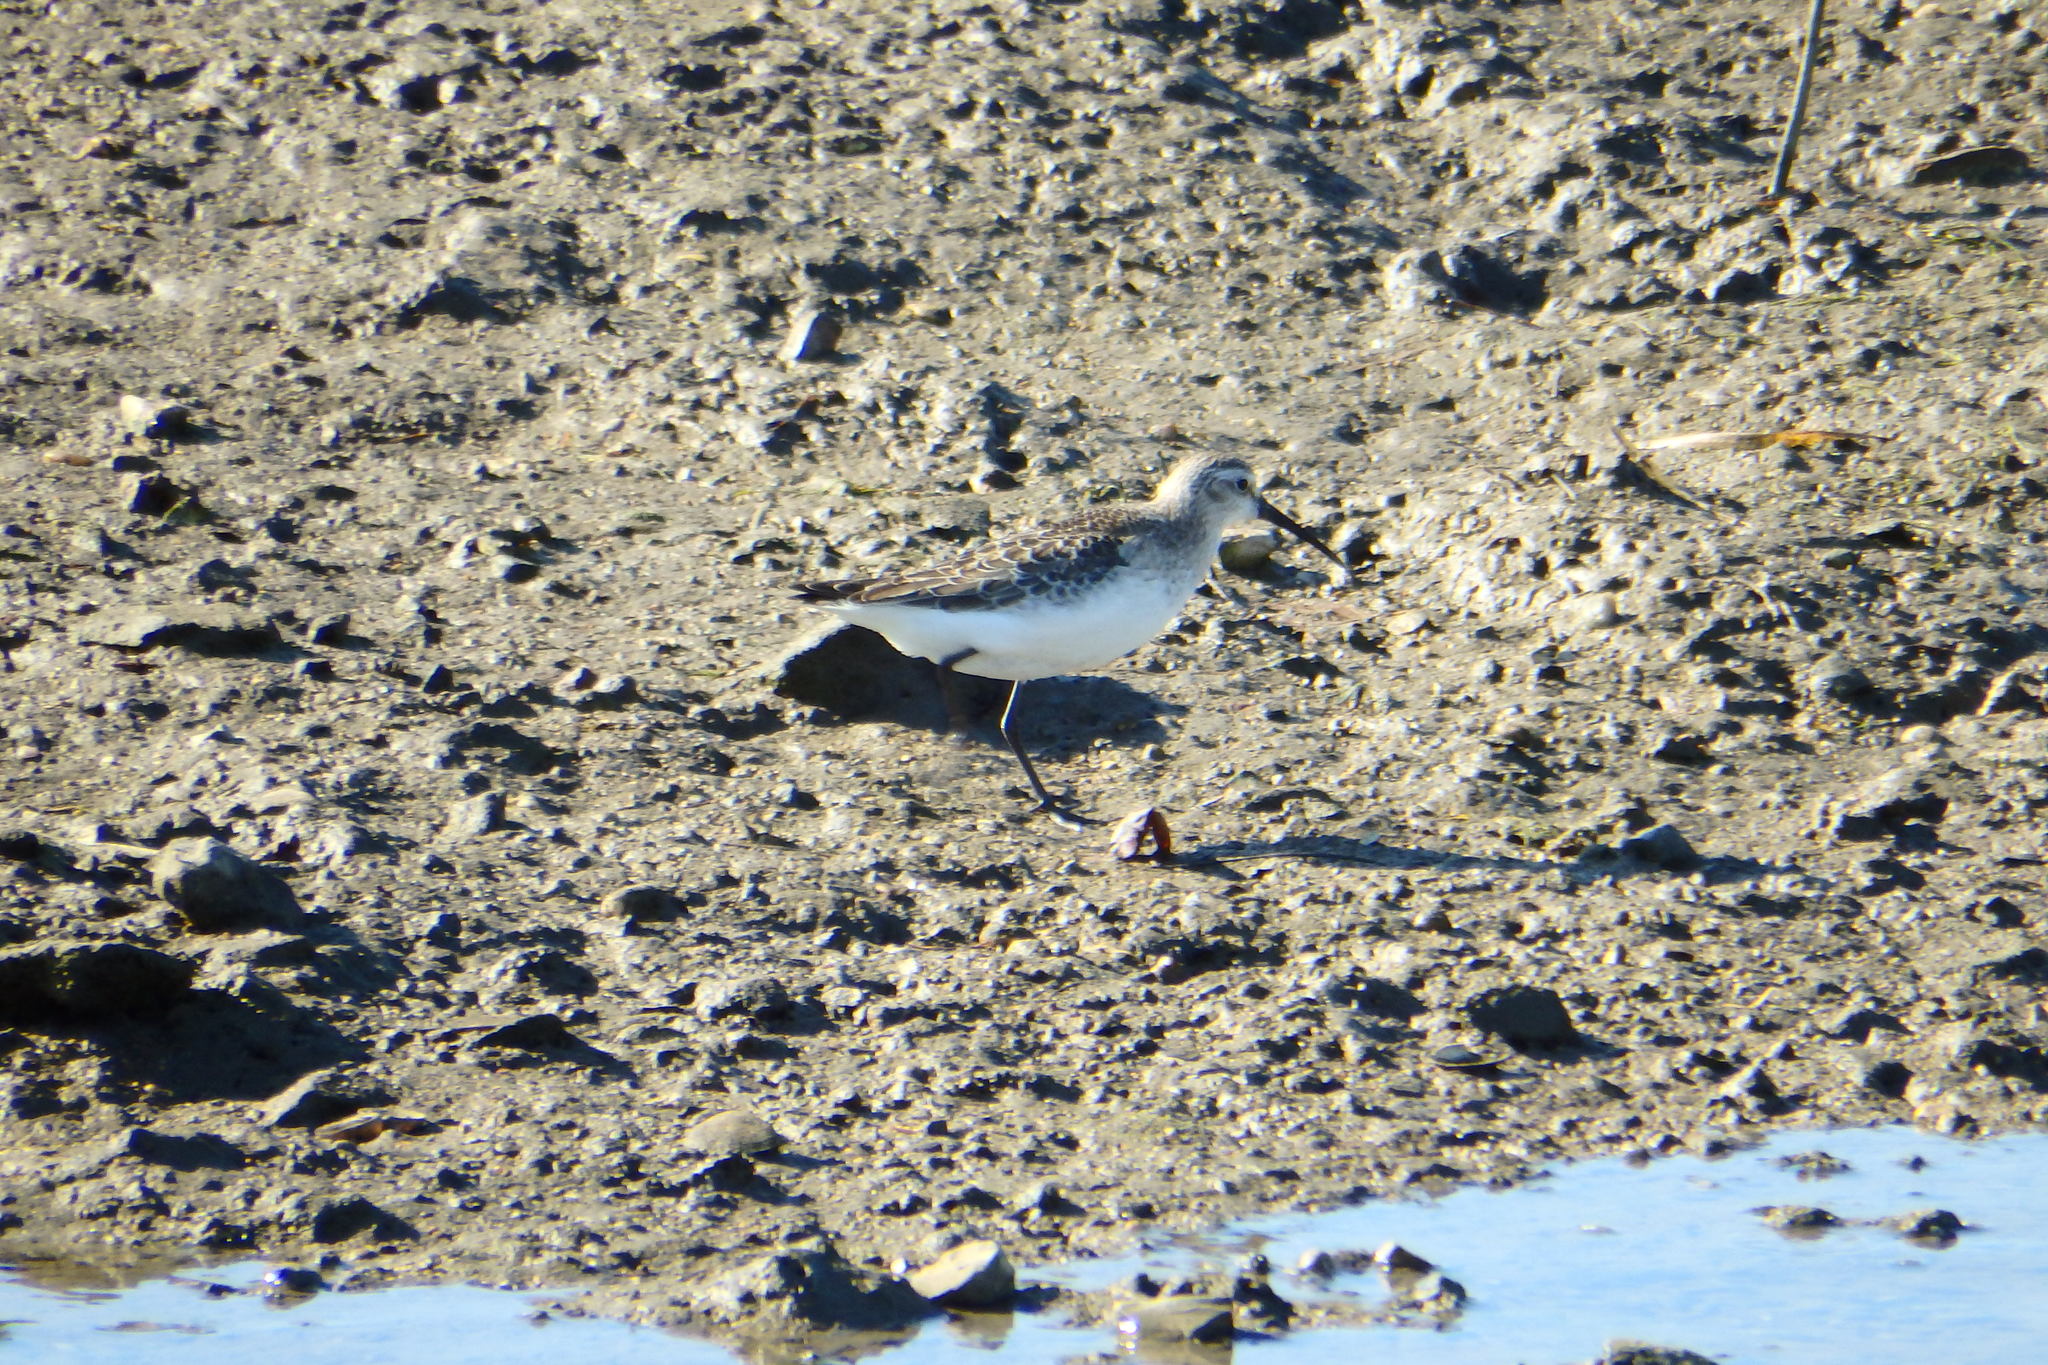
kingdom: Animalia
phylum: Chordata
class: Aves
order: Charadriiformes
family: Scolopacidae
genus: Calidris
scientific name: Calidris ferruginea
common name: Curlew sandpiper
